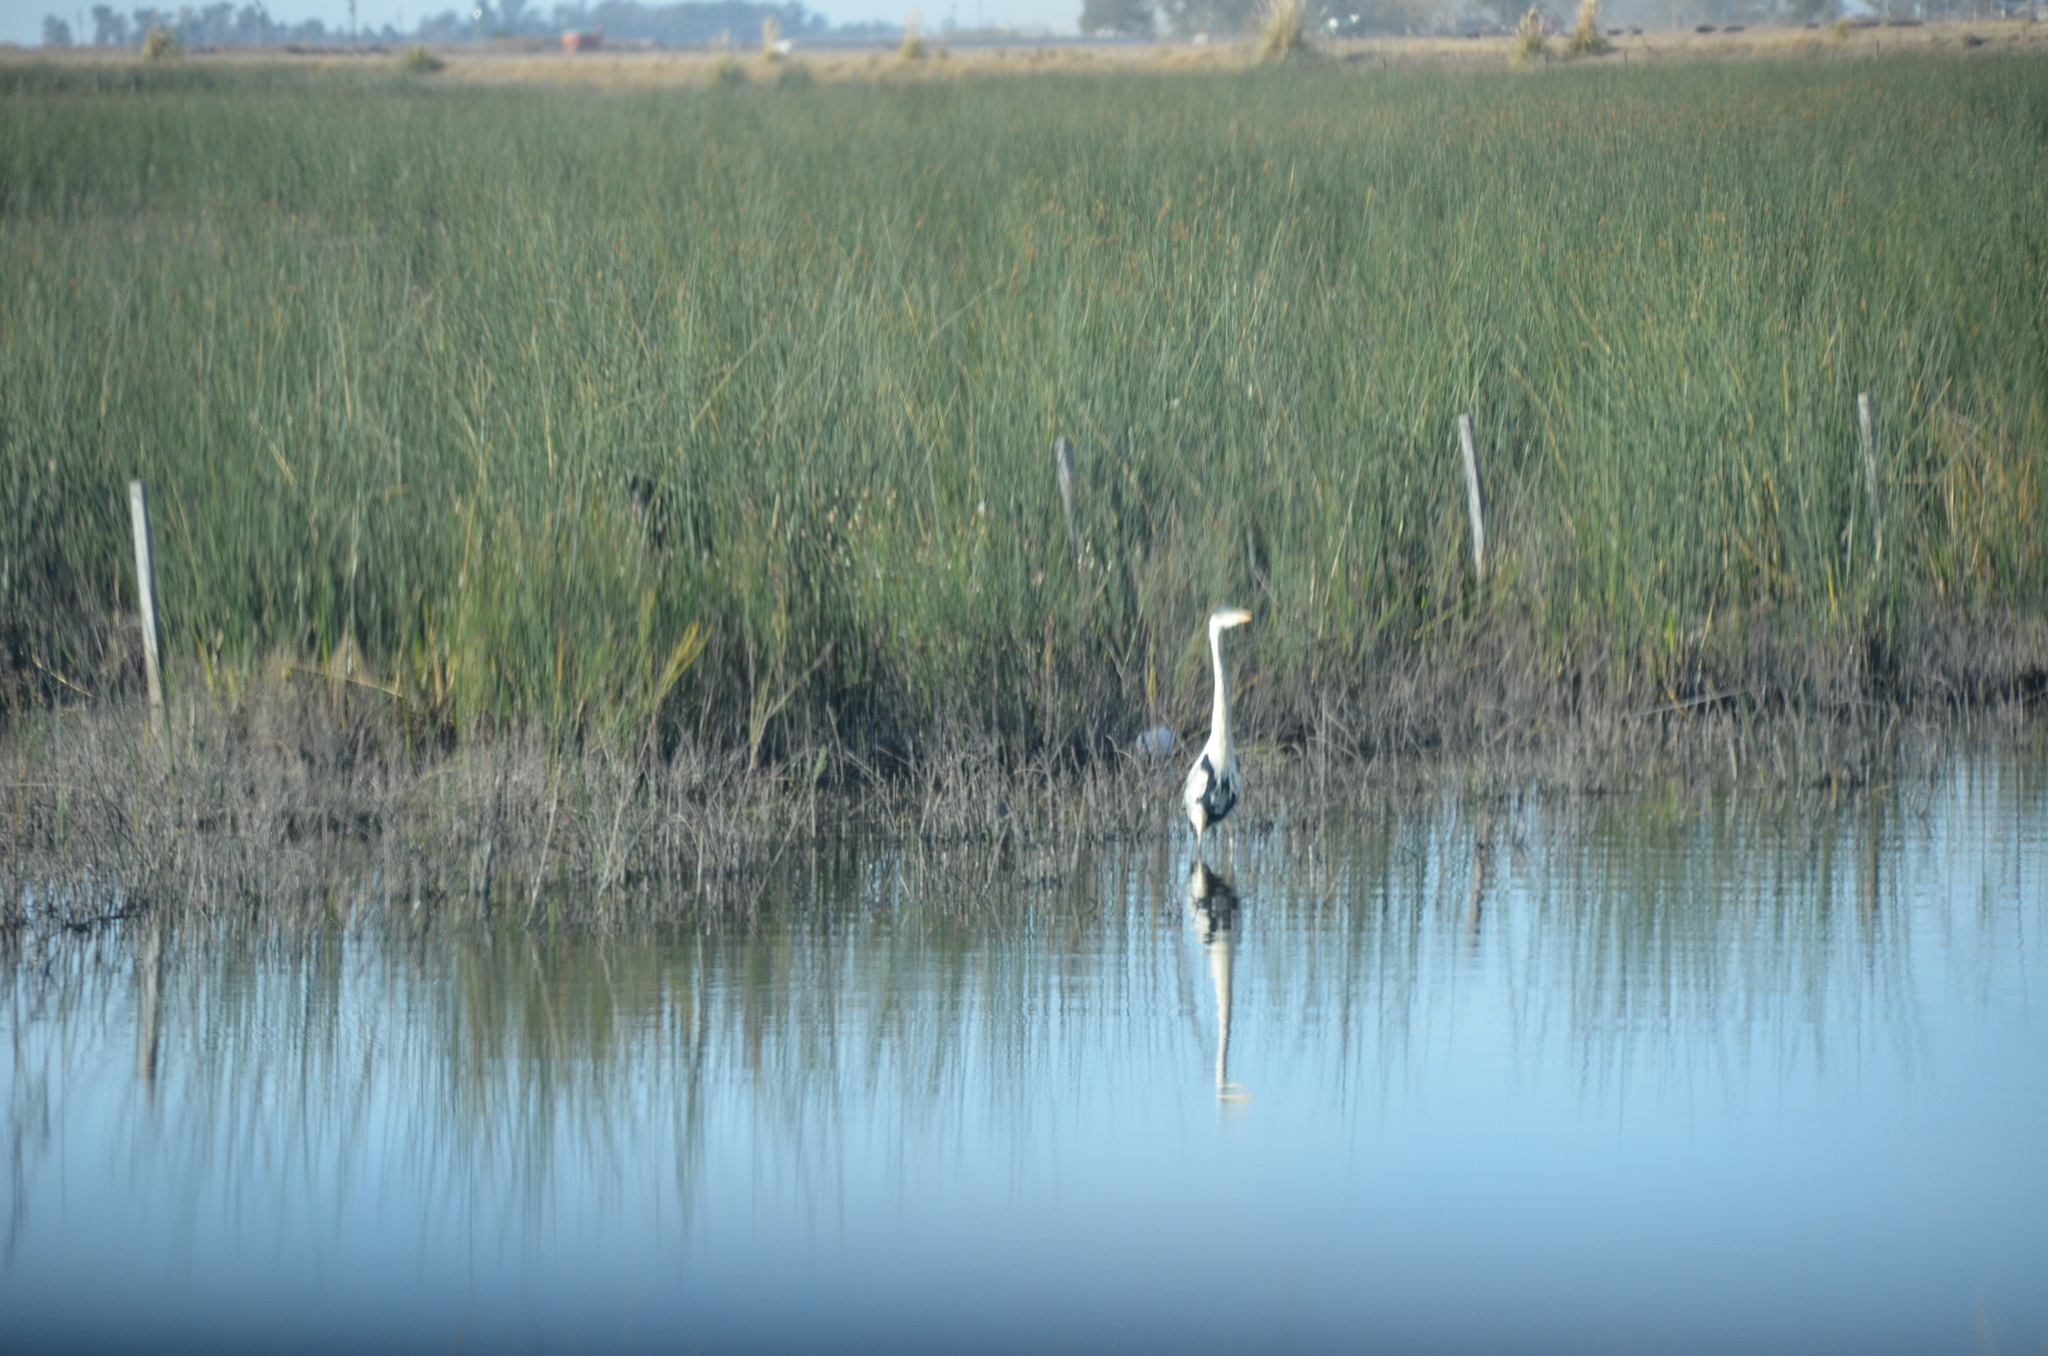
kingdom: Animalia
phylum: Chordata
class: Aves
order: Pelecaniformes
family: Ardeidae
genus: Ardea
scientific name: Ardea cocoi
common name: Cocoi heron
